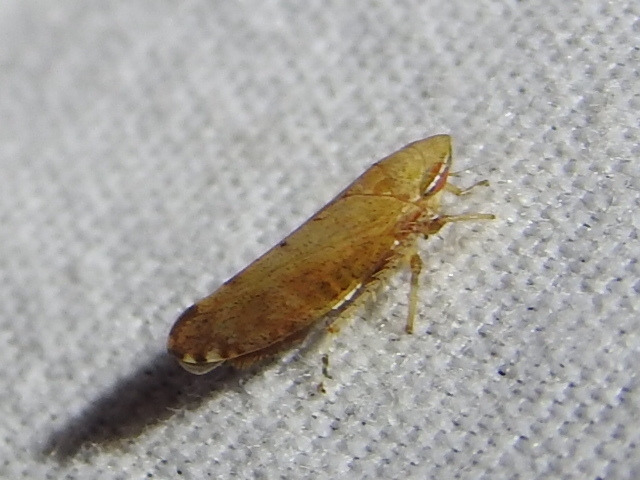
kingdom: Animalia
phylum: Arthropoda
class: Insecta
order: Hemiptera
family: Cicadellidae
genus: Fieberiella
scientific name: Fieberiella florii
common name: Flor’s leafhopper
